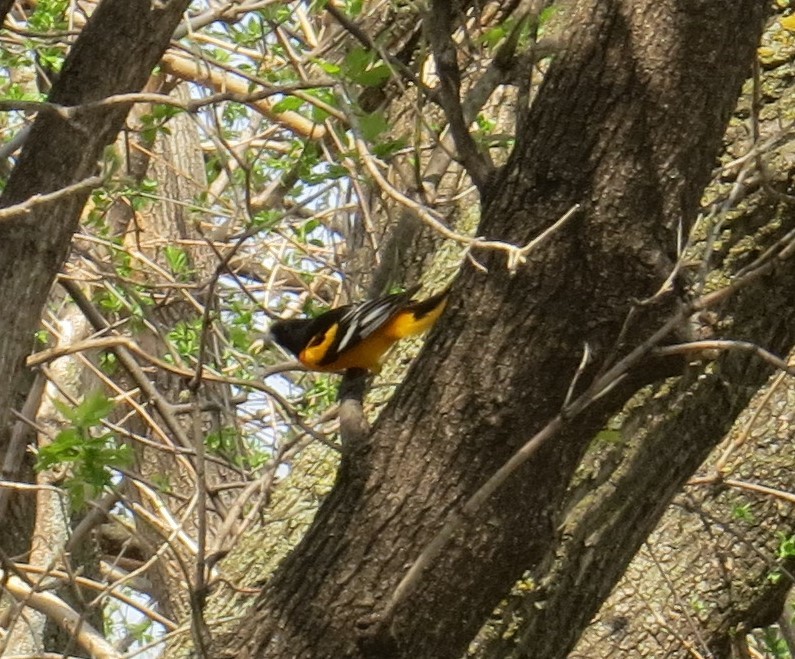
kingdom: Animalia
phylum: Chordata
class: Aves
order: Passeriformes
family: Icteridae
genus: Icterus
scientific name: Icterus galbula
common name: Baltimore oriole
